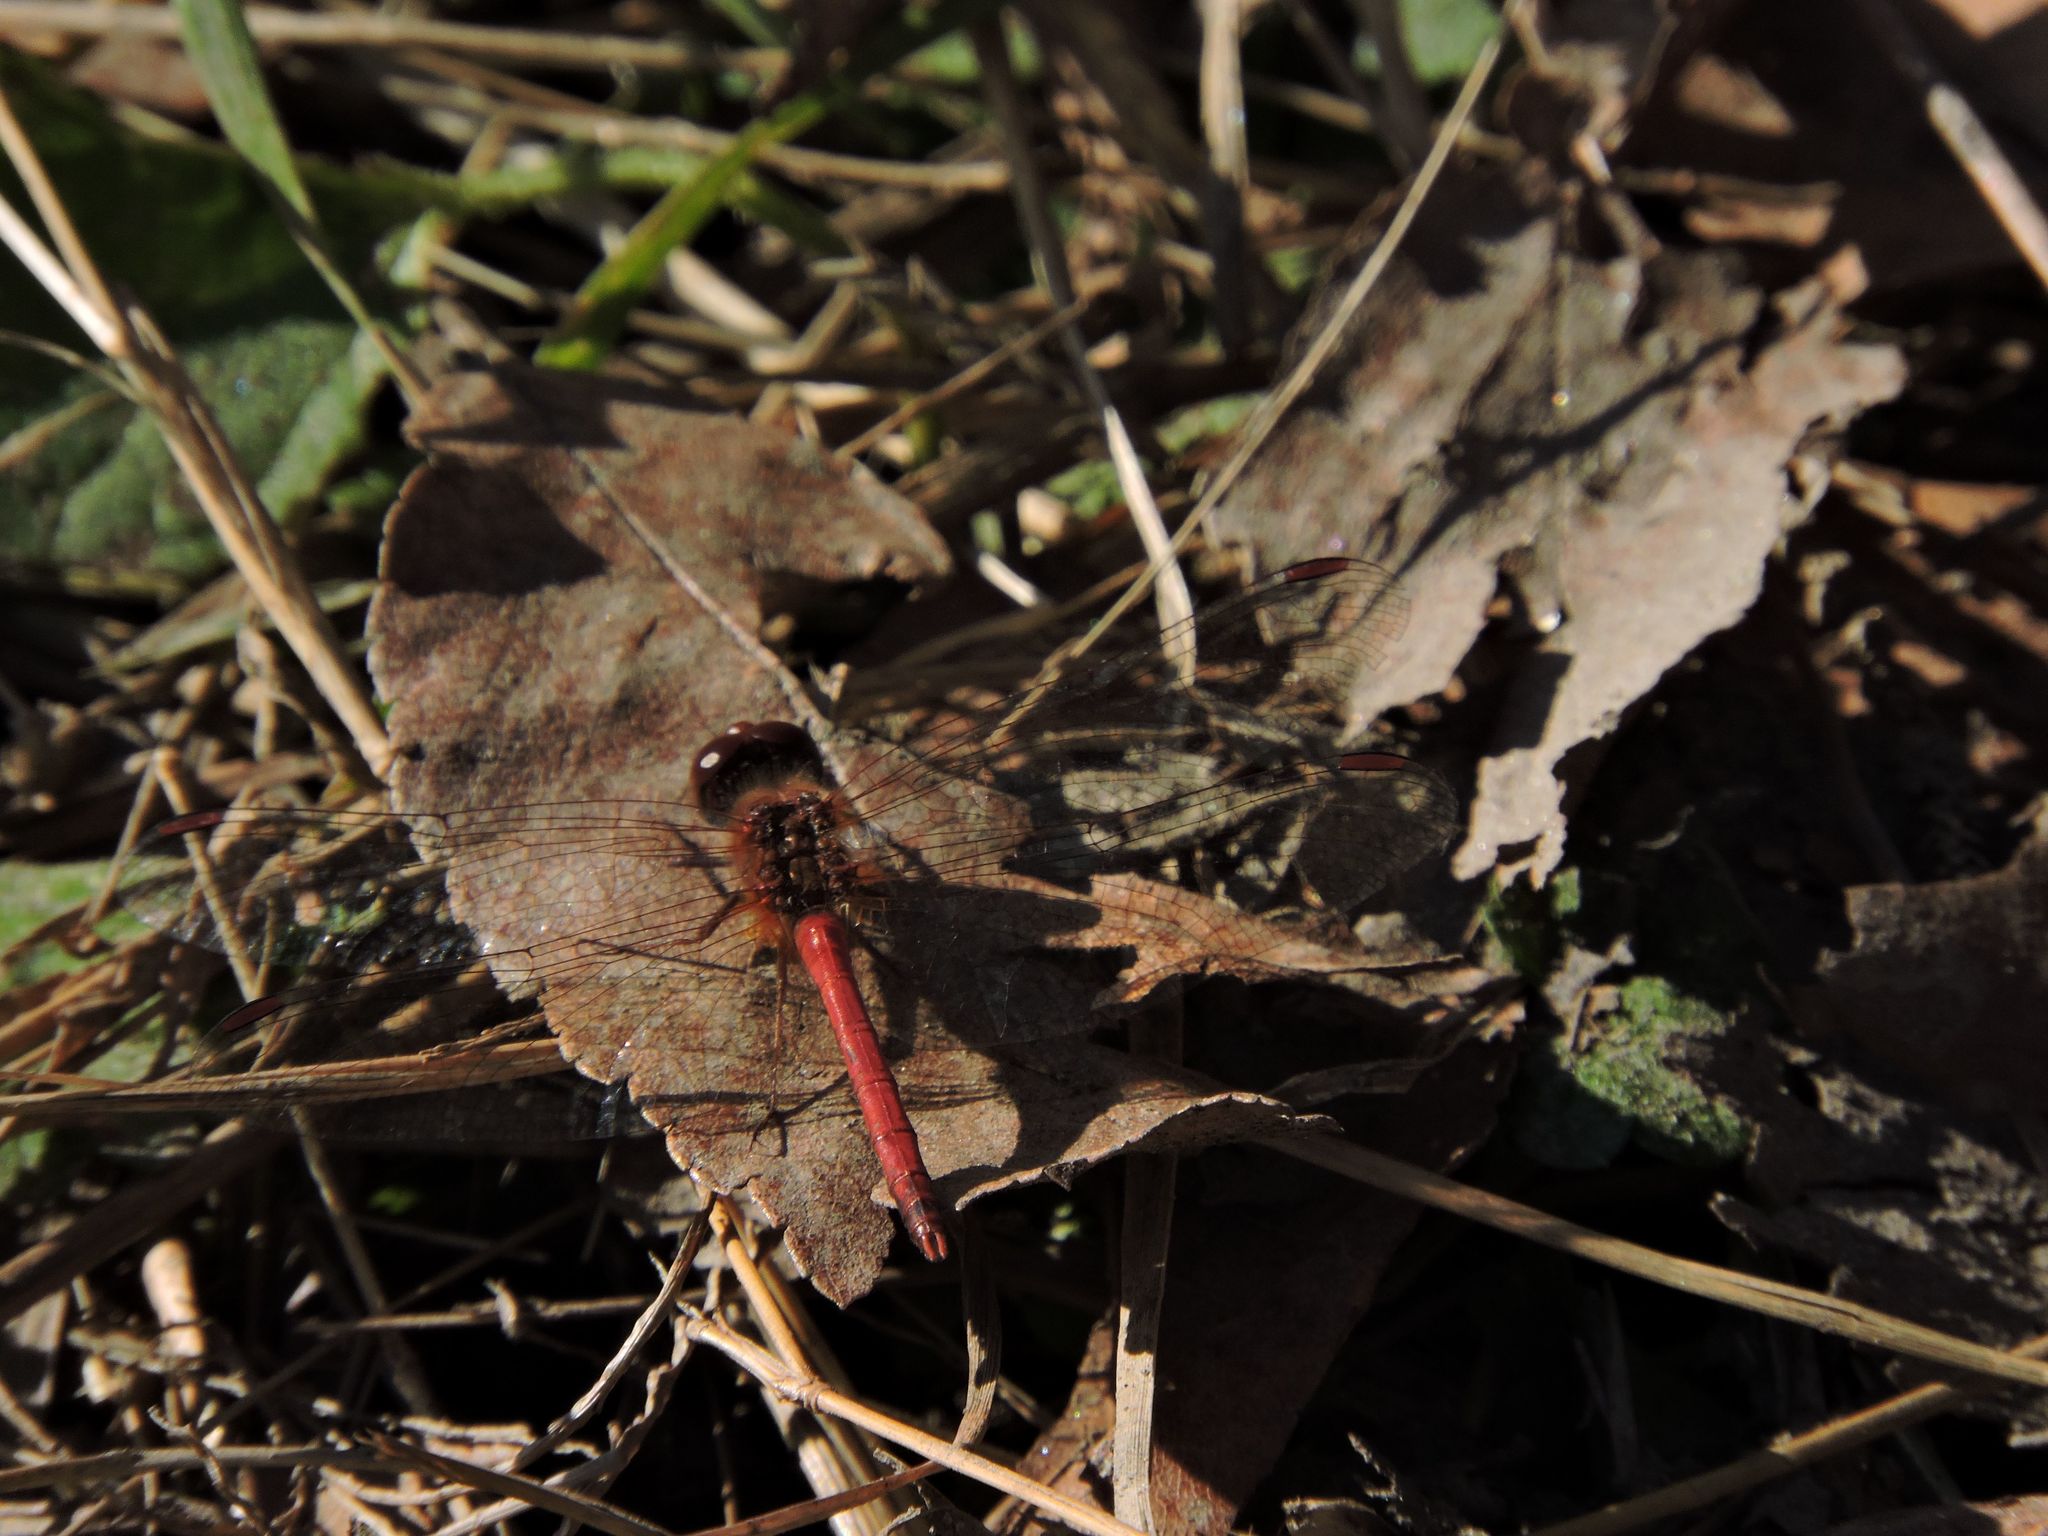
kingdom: Animalia
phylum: Arthropoda
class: Insecta
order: Odonata
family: Libellulidae
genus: Sympetrum
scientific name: Sympetrum vicinum
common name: Autumn meadowhawk
